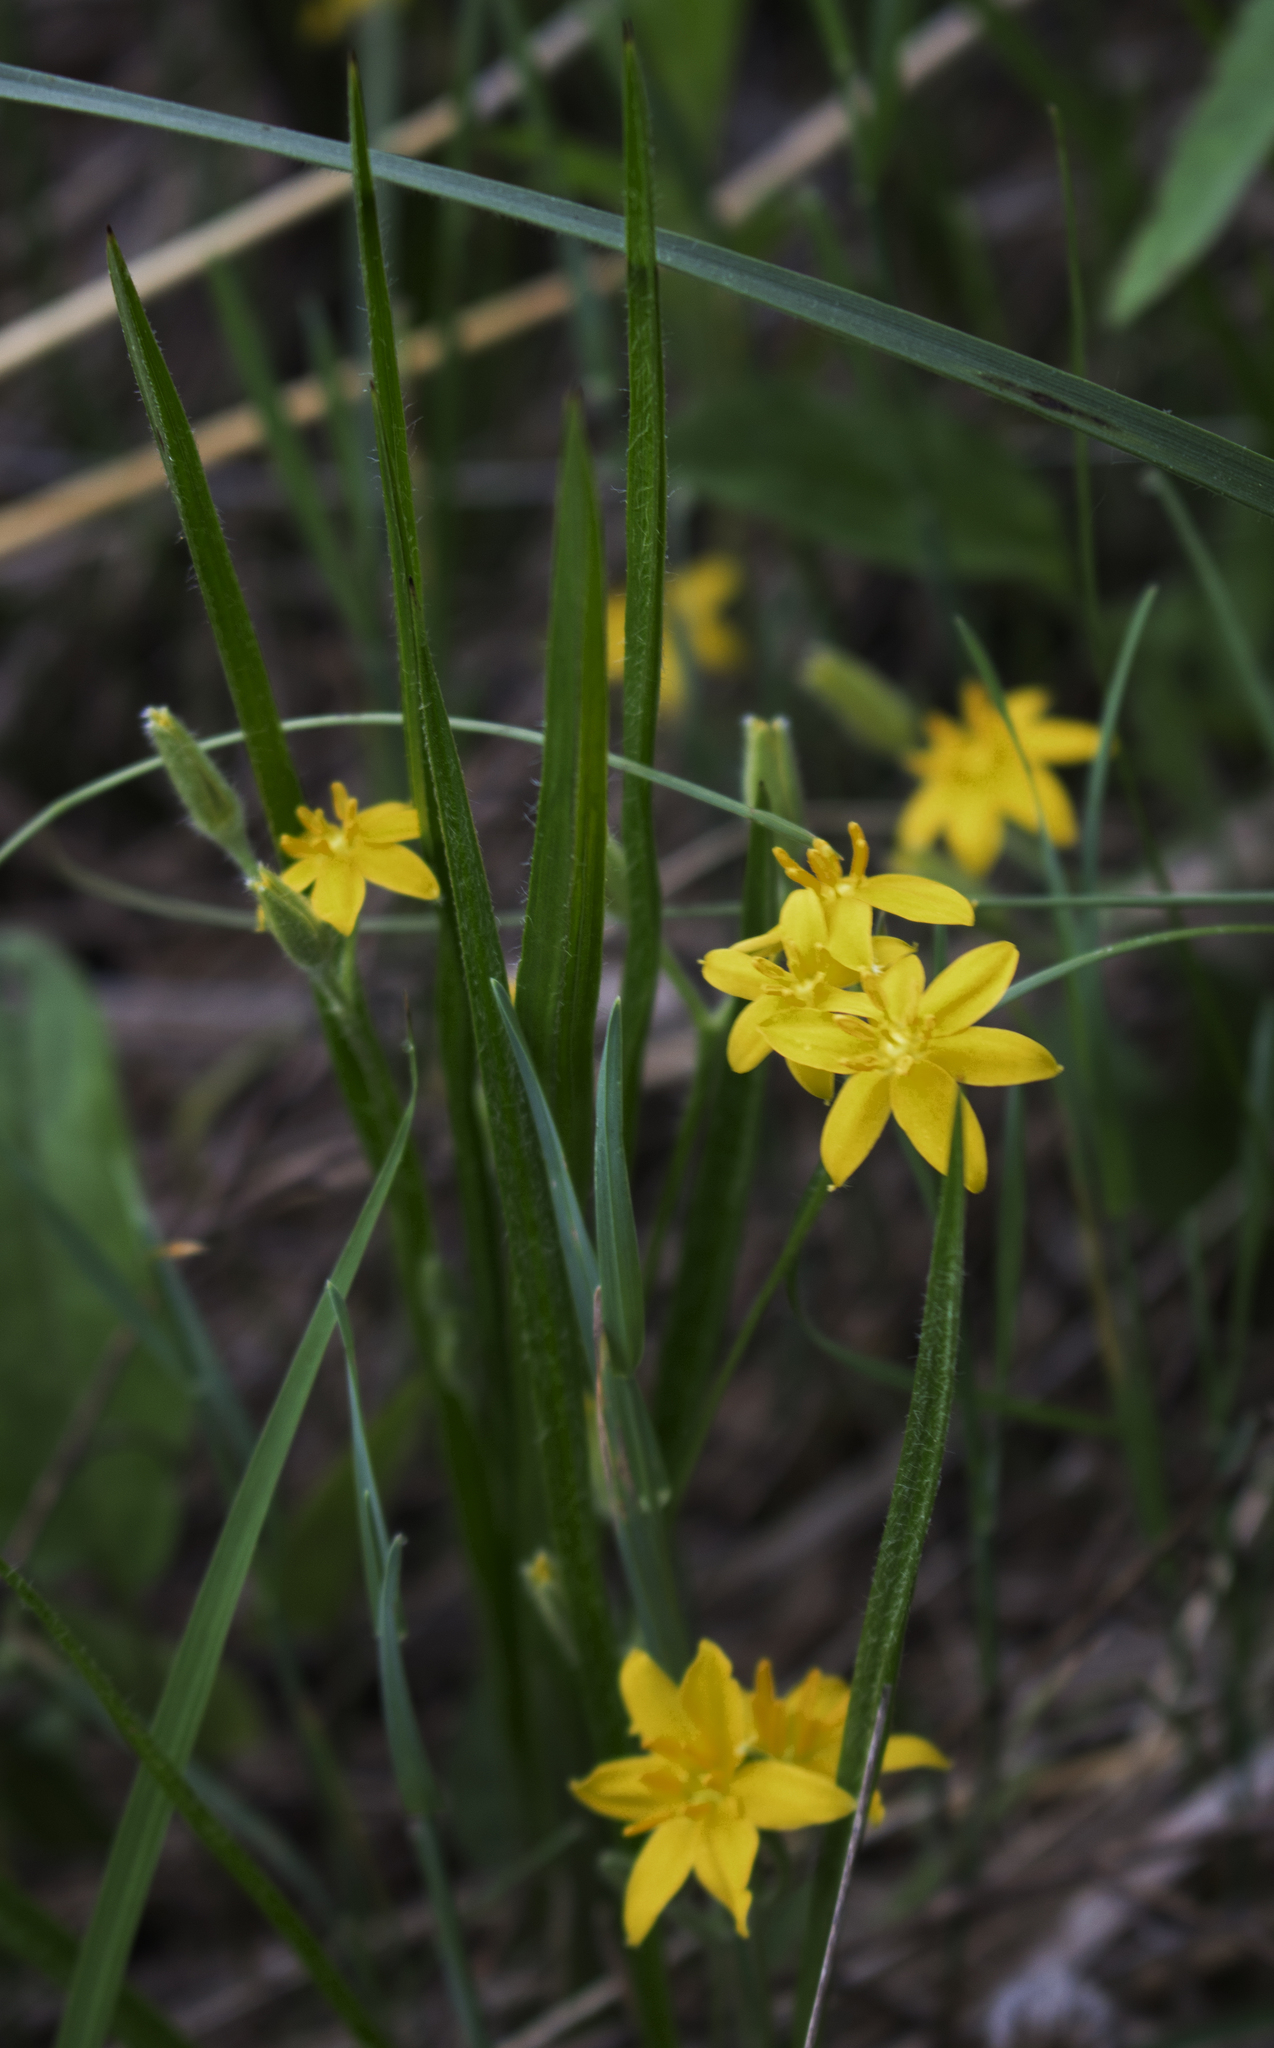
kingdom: Plantae
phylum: Tracheophyta
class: Liliopsida
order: Asparagales
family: Hypoxidaceae
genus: Hypoxis
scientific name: Hypoxis hirsuta
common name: Common goldstar
